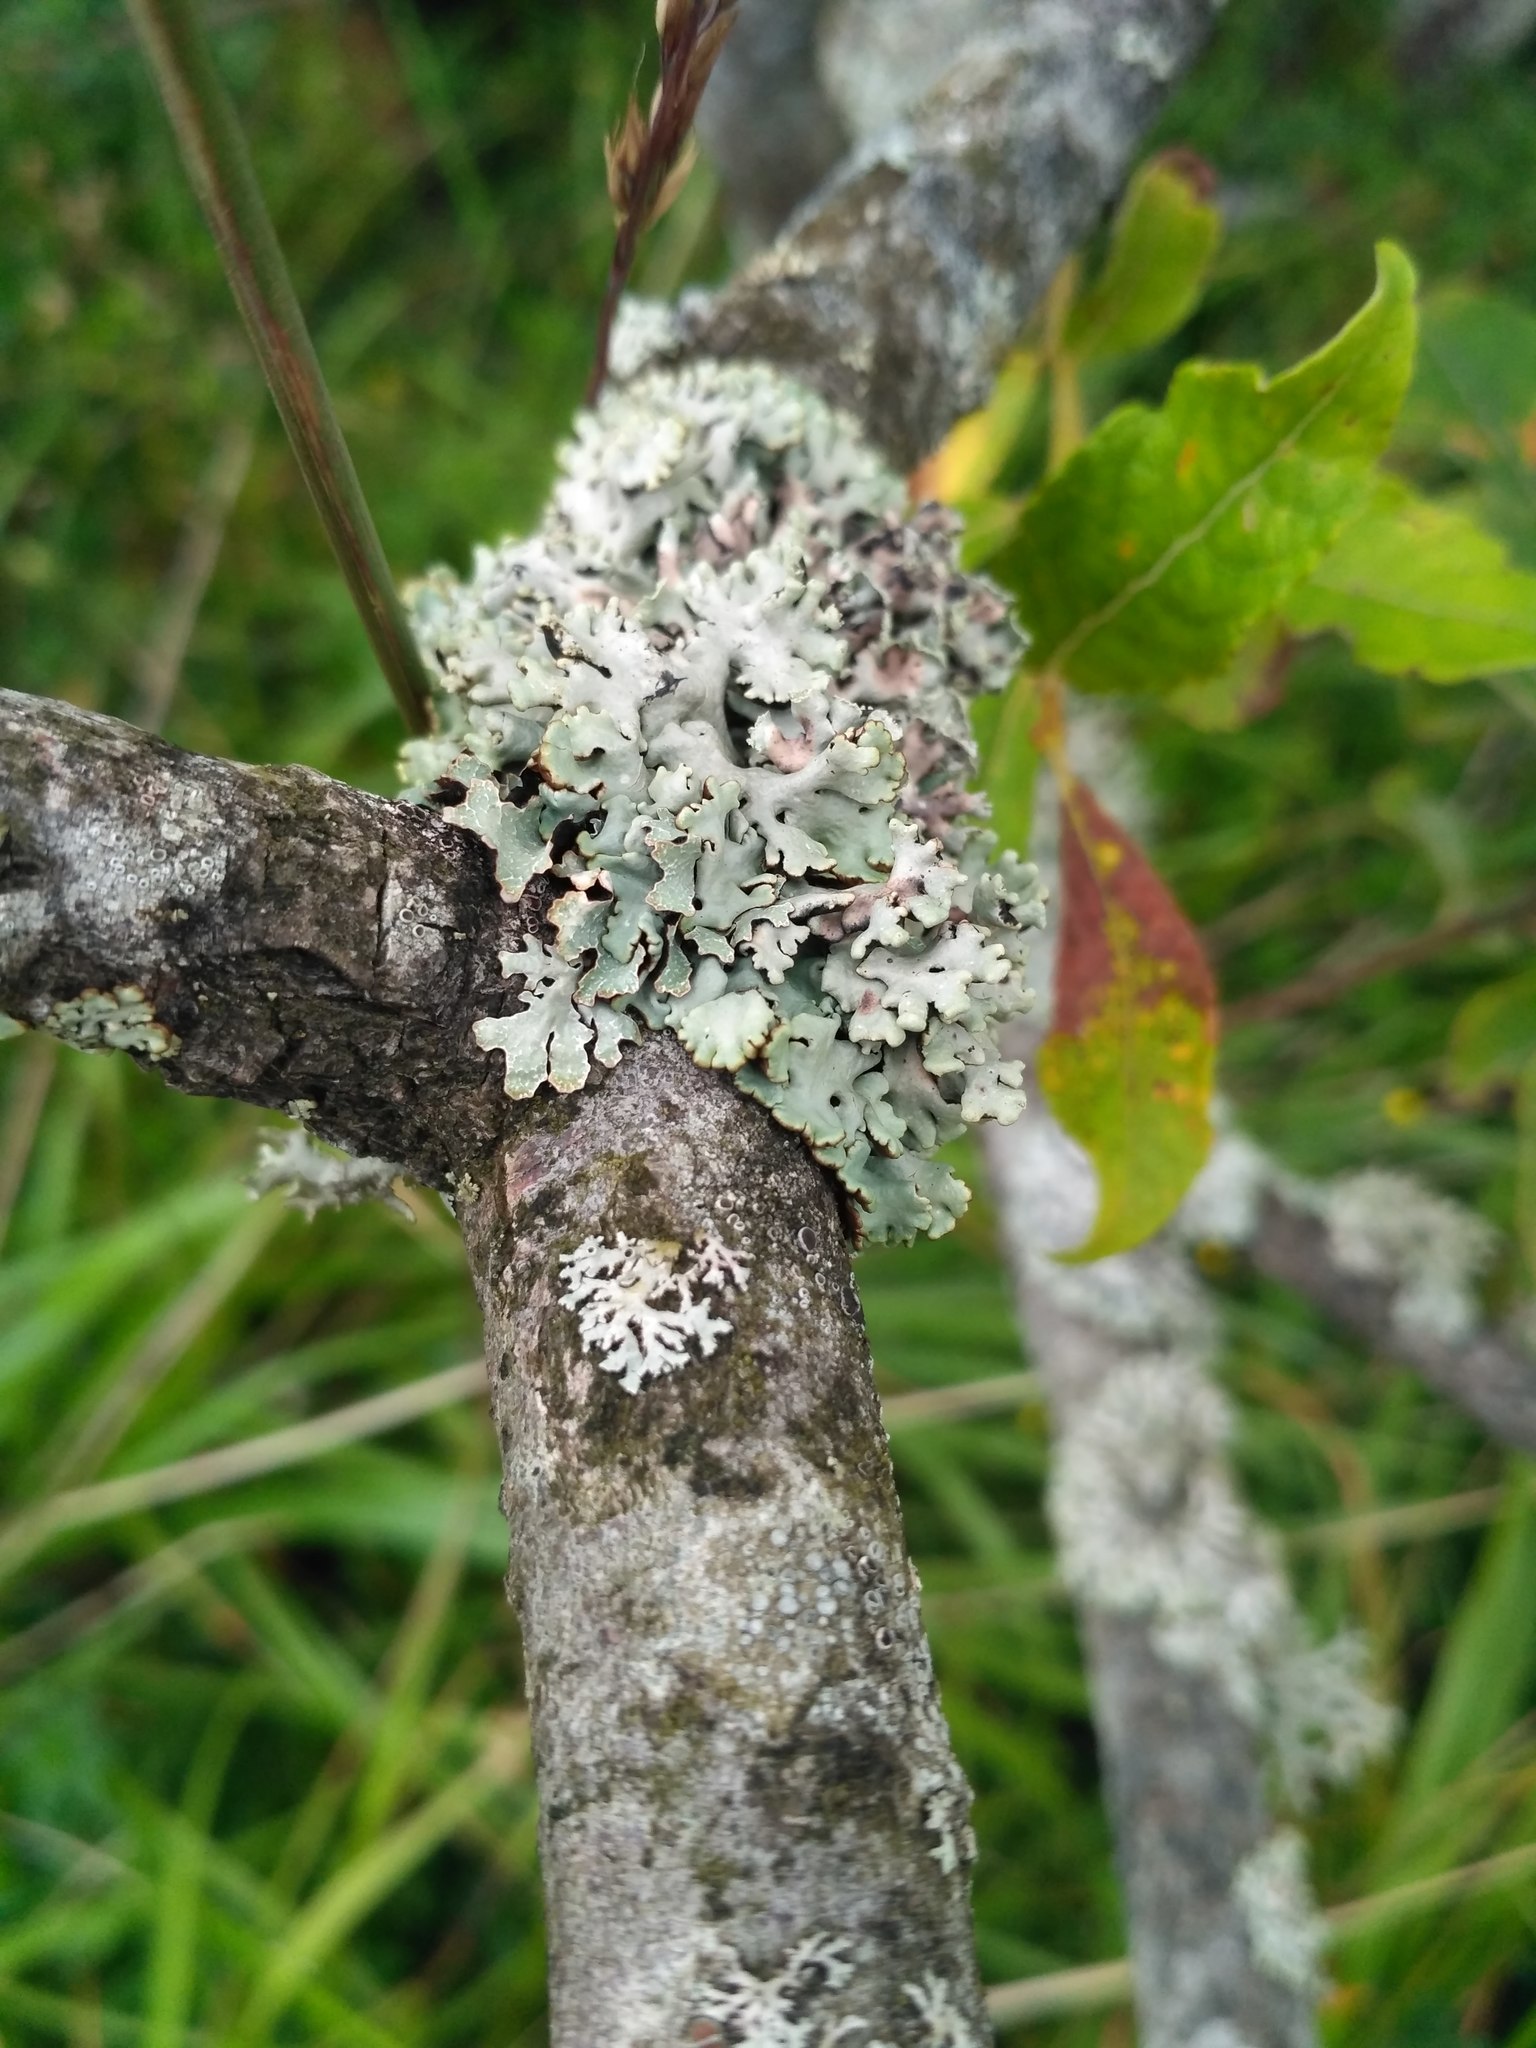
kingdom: Fungi
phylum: Ascomycota
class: Lecanoromycetes
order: Lecanorales
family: Parmeliaceae
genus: Hypogymnia
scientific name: Hypogymnia physodes
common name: Dark crottle
